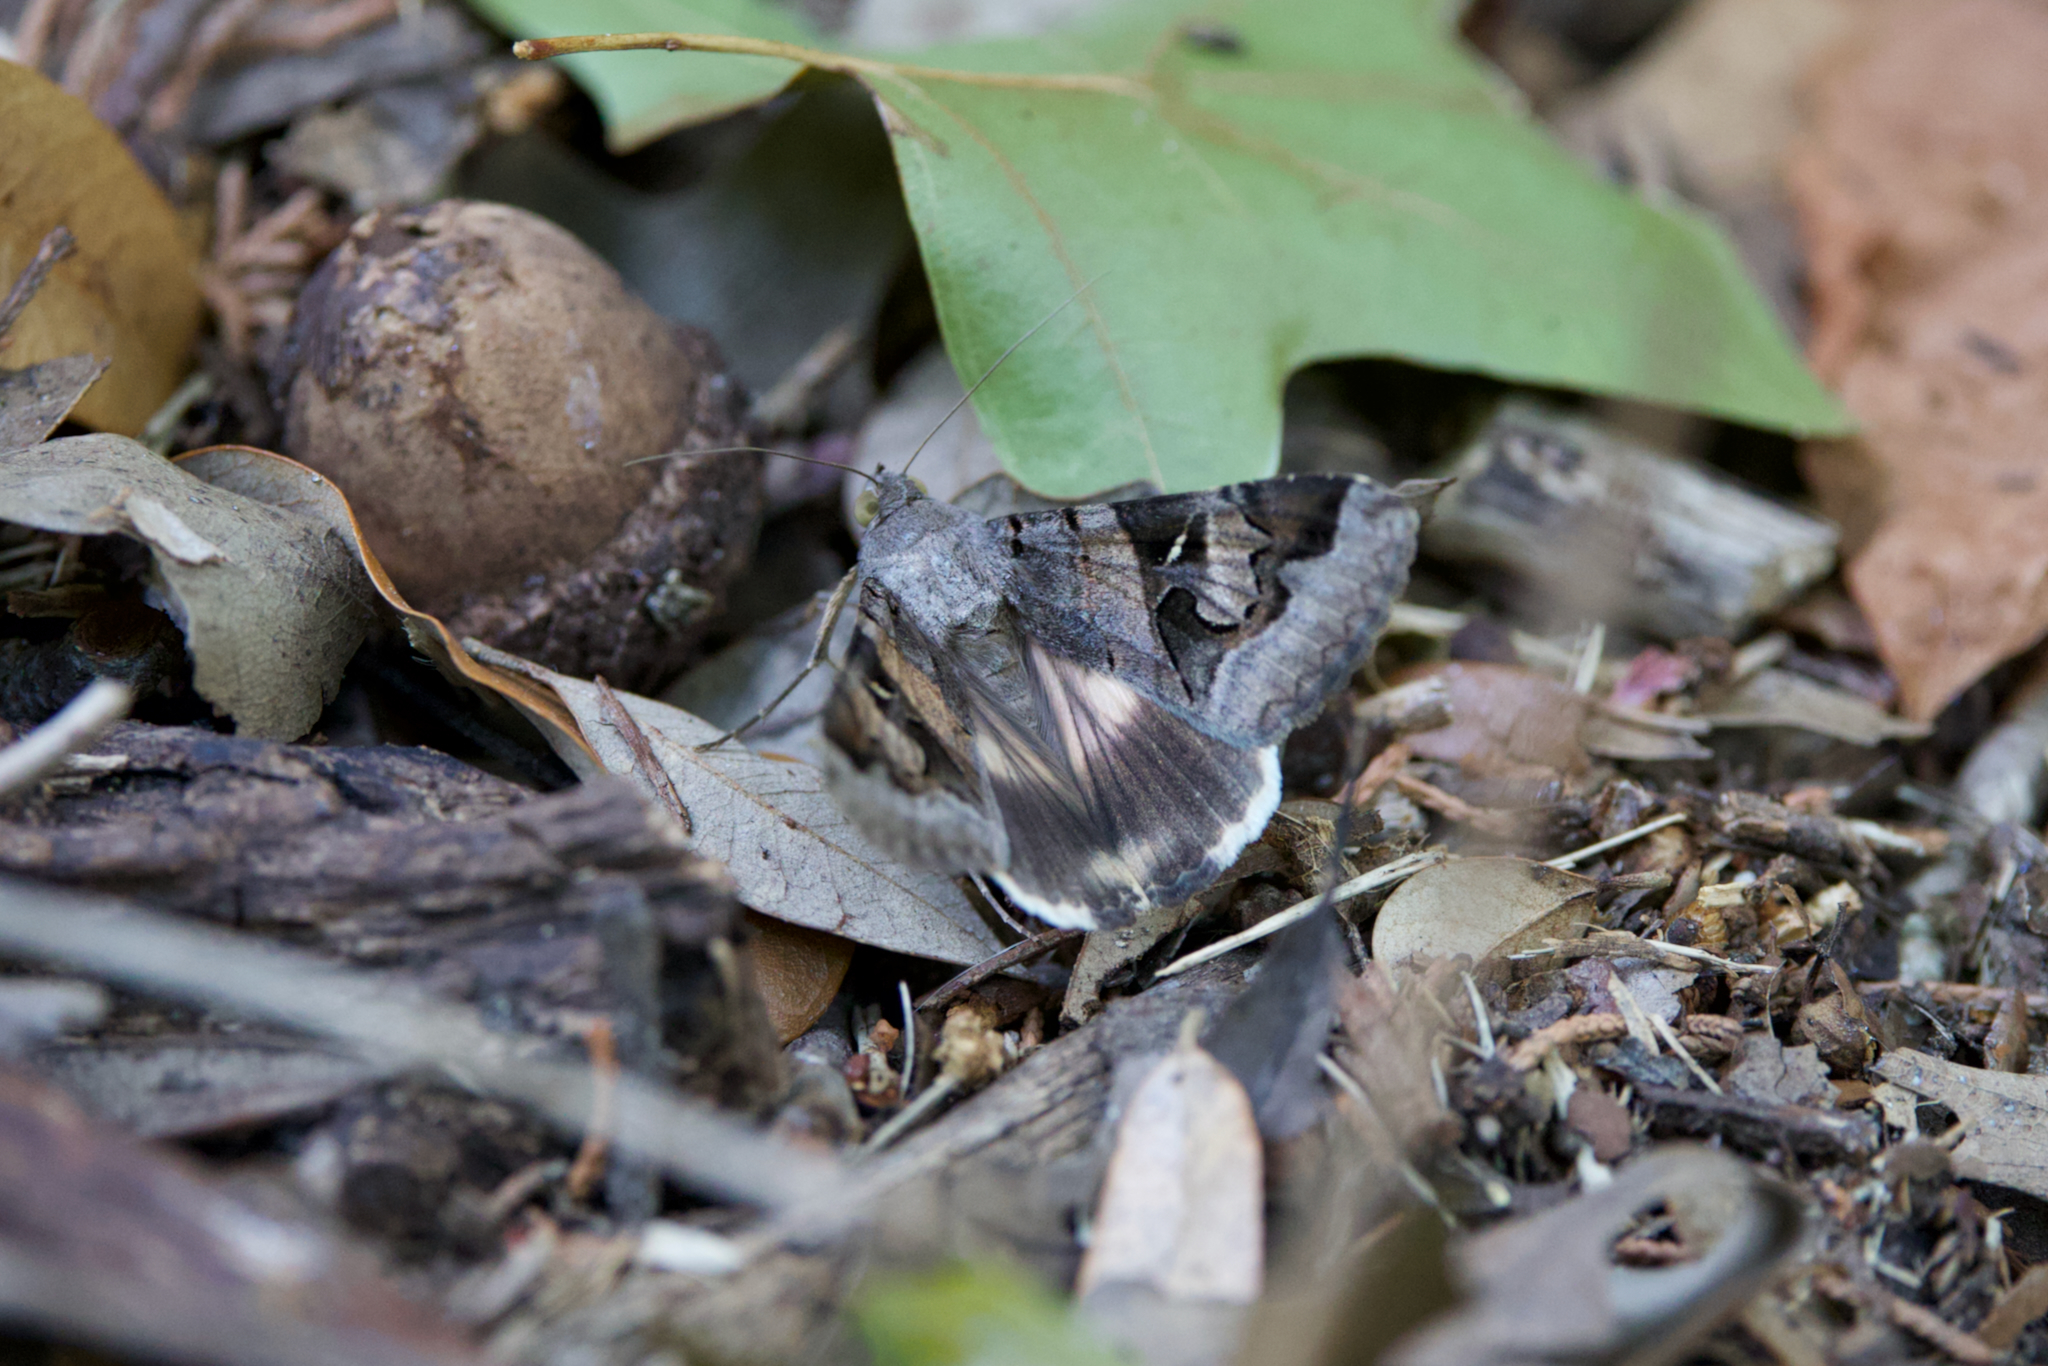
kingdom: Animalia
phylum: Arthropoda
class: Insecta
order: Lepidoptera
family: Erebidae
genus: Melipotis
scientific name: Melipotis indomita
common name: Moth
